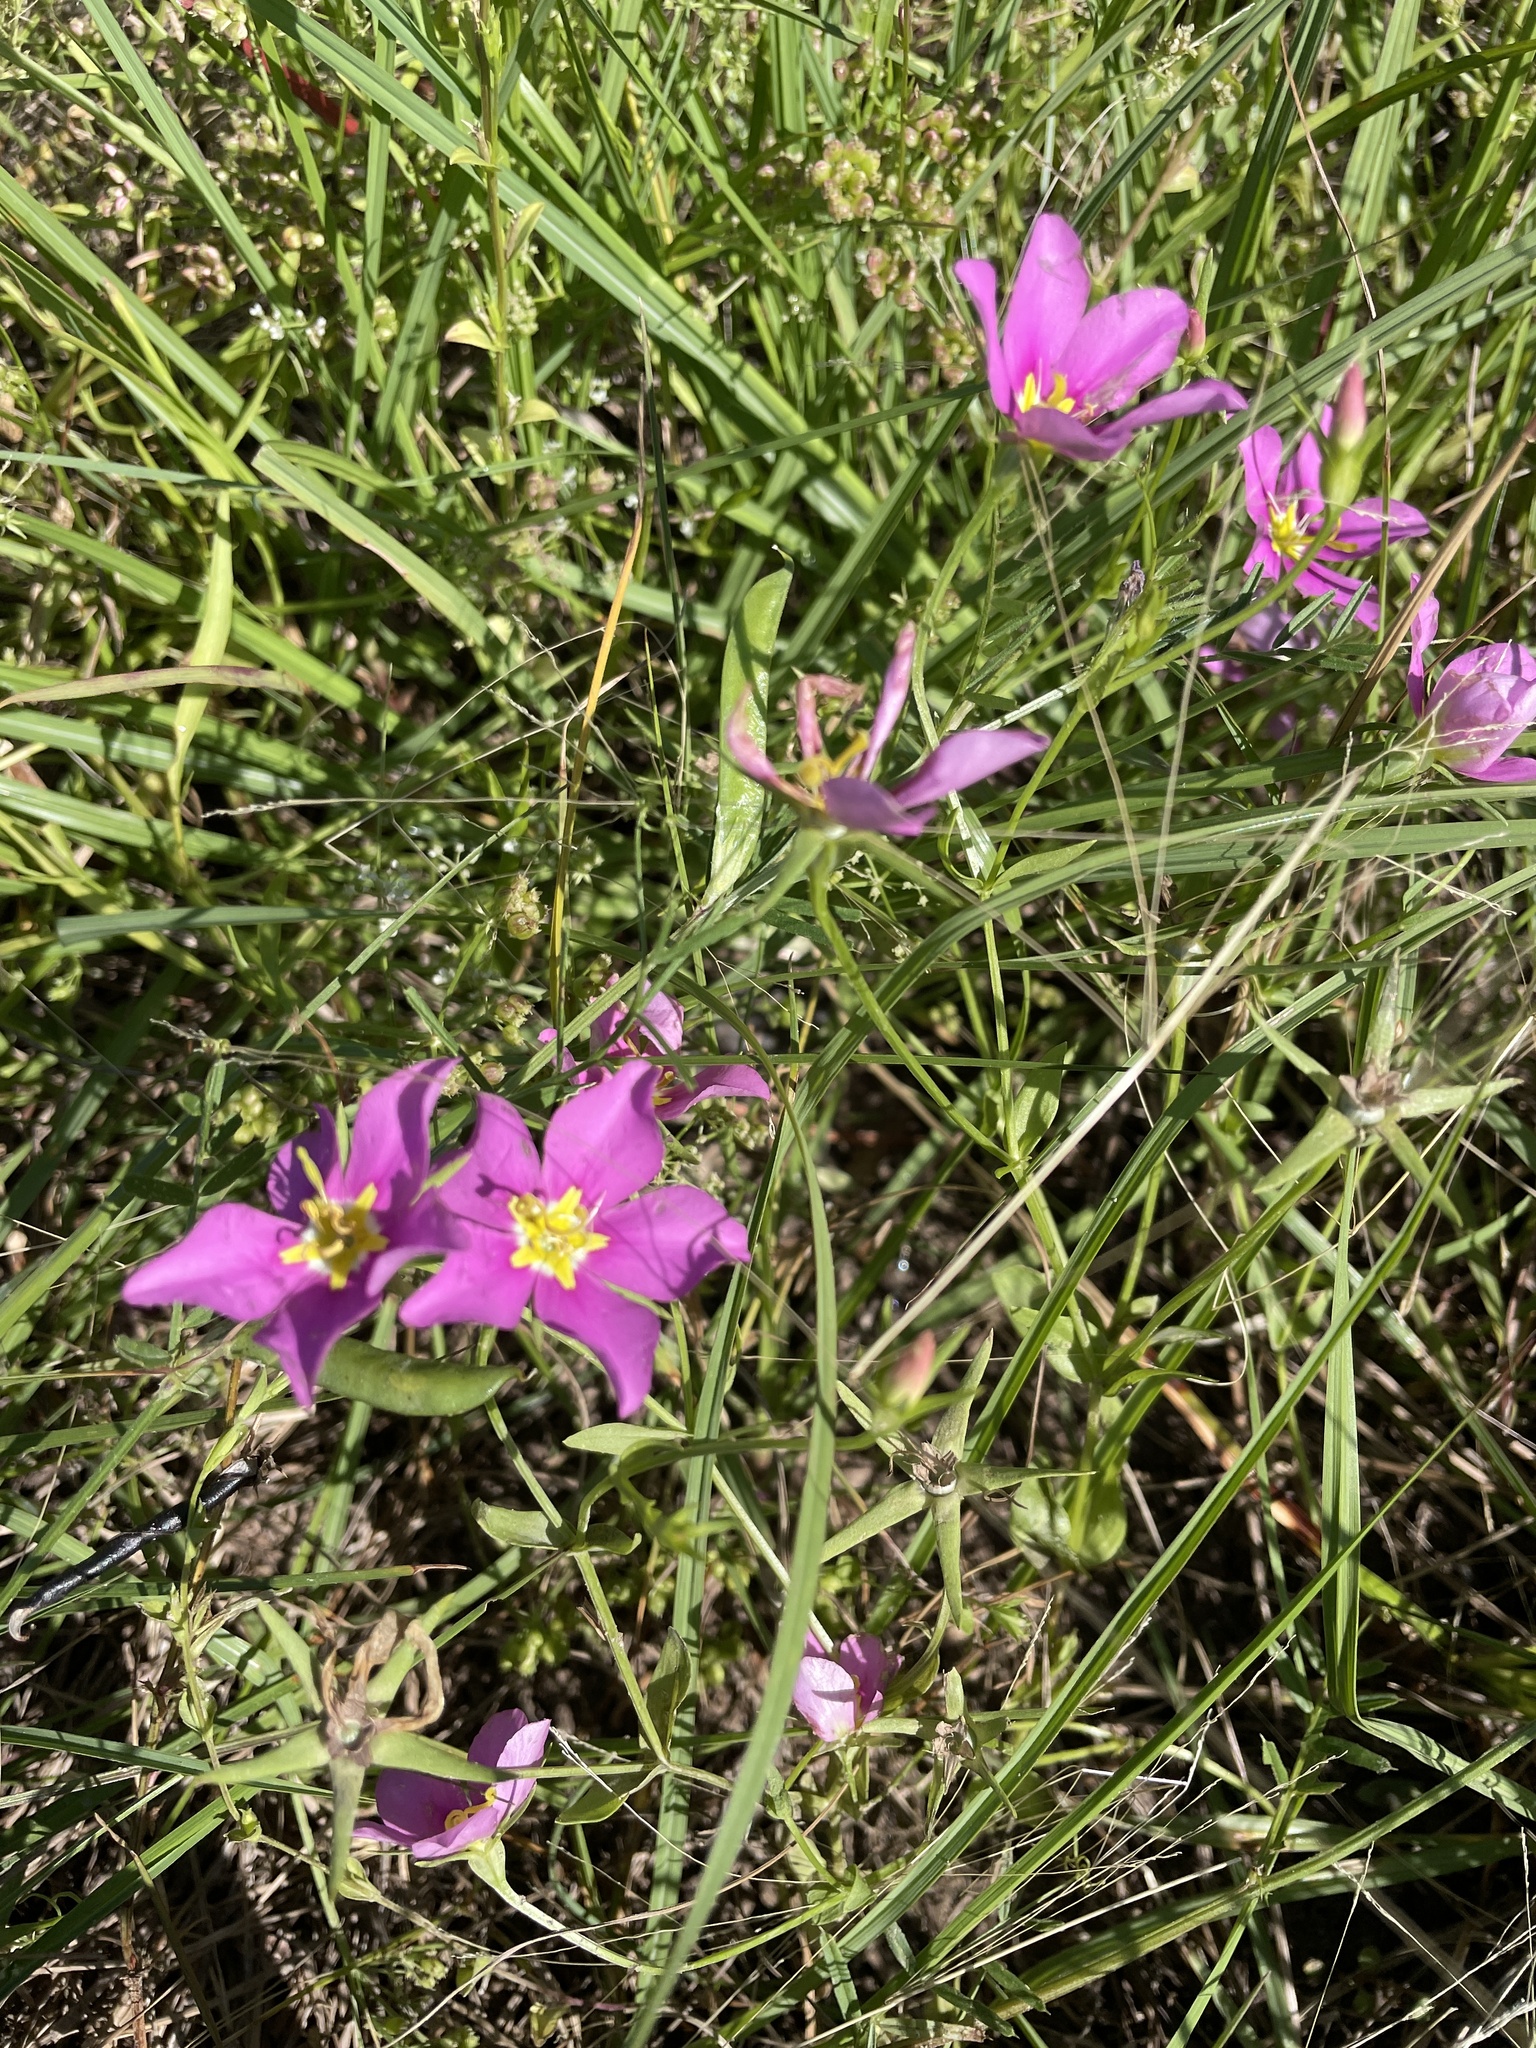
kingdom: Plantae
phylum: Tracheophyta
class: Magnoliopsida
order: Gentianales
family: Gentianaceae
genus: Sabatia
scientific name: Sabatia campestris
